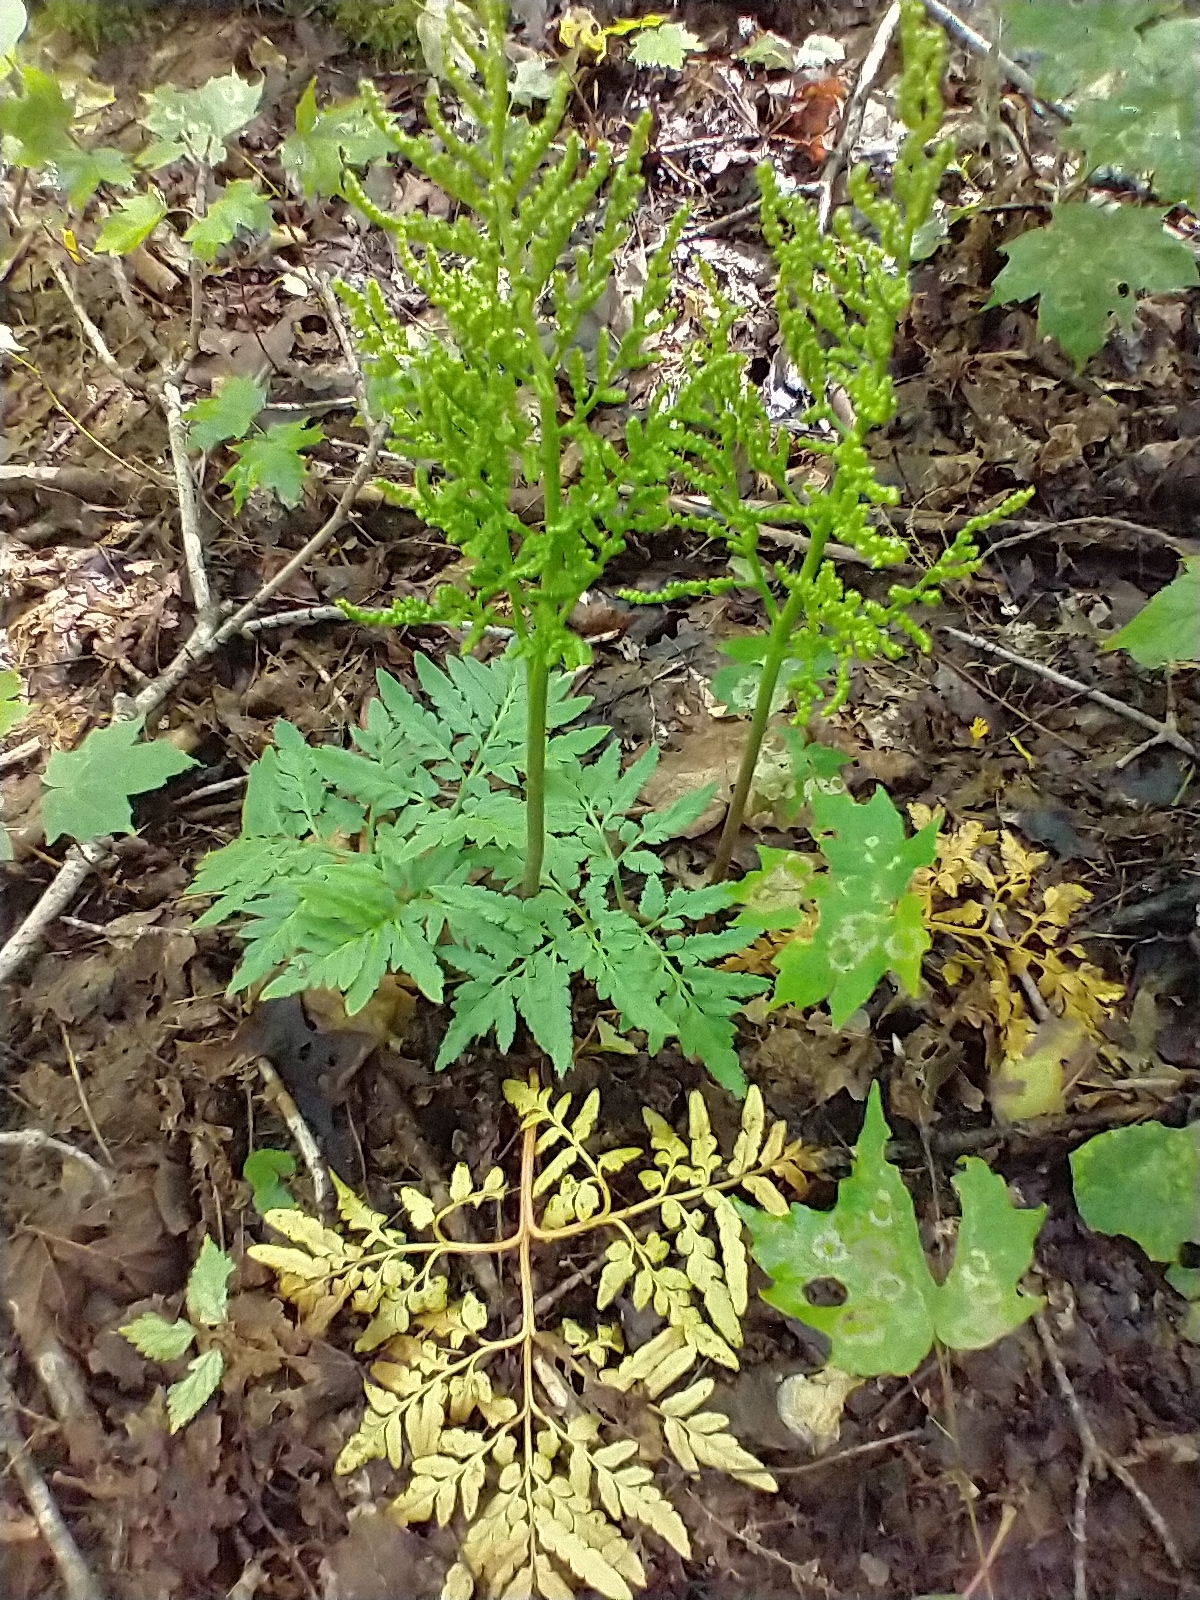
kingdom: Plantae
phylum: Tracheophyta
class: Polypodiopsida
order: Ophioglossales
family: Ophioglossaceae
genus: Sceptridium
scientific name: Sceptridium dissectum
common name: Cut-leaved grapefern
